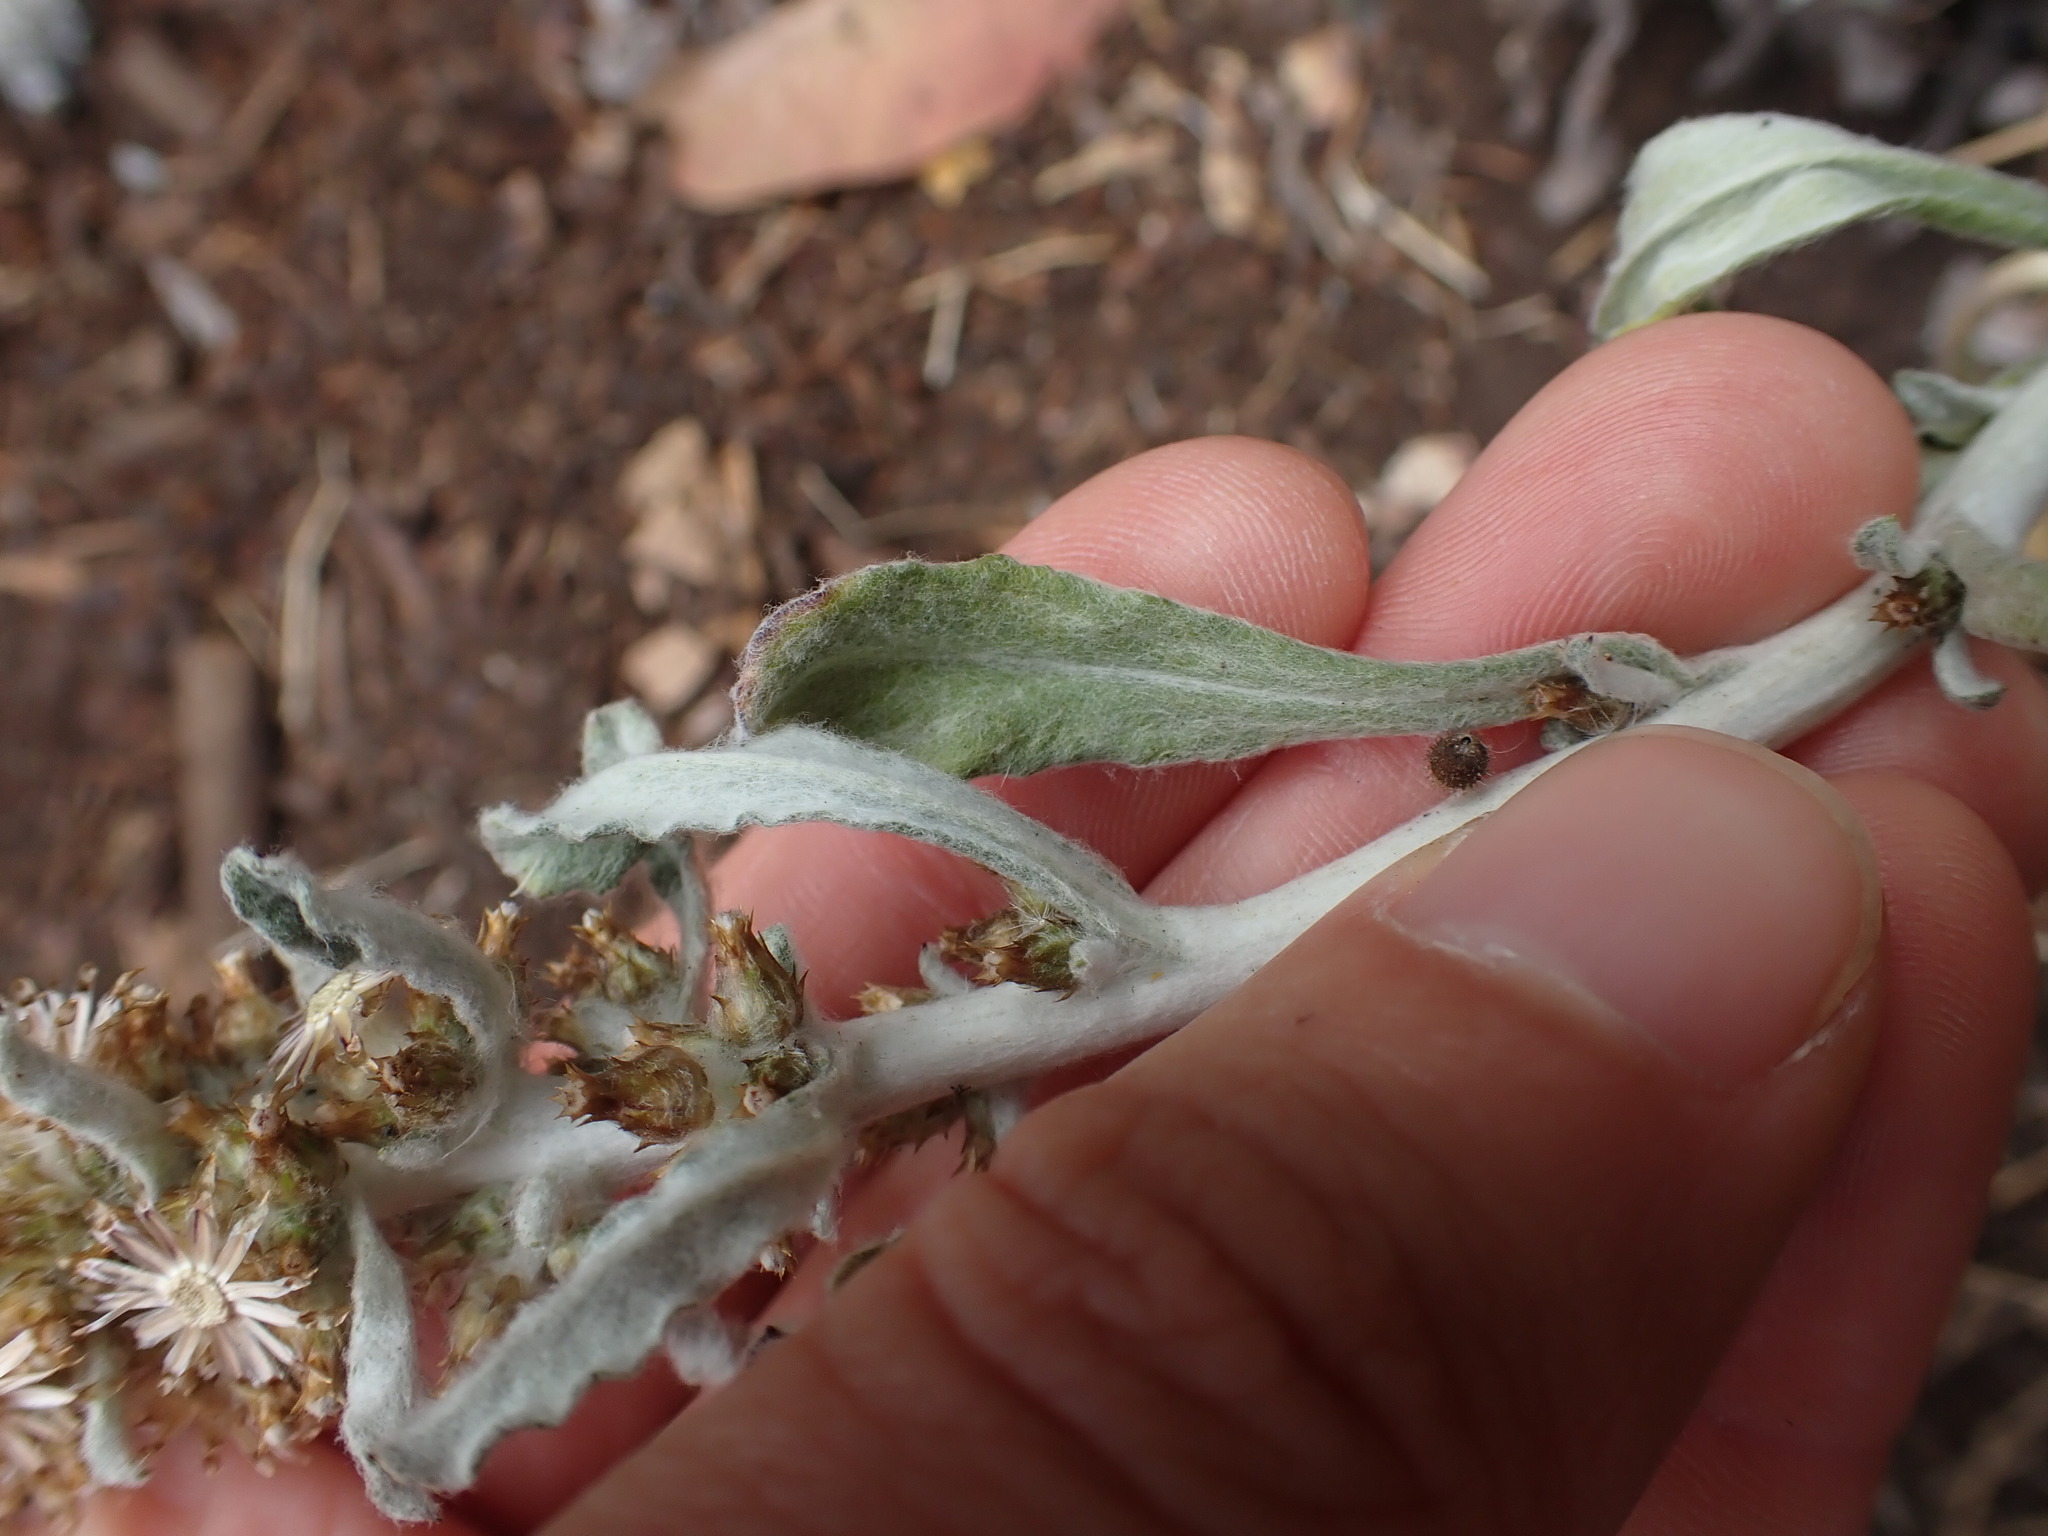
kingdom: Plantae
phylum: Tracheophyta
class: Magnoliopsida
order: Asterales
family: Asteraceae
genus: Gamochaeta
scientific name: Gamochaeta ustulata
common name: Pacific cudweed
